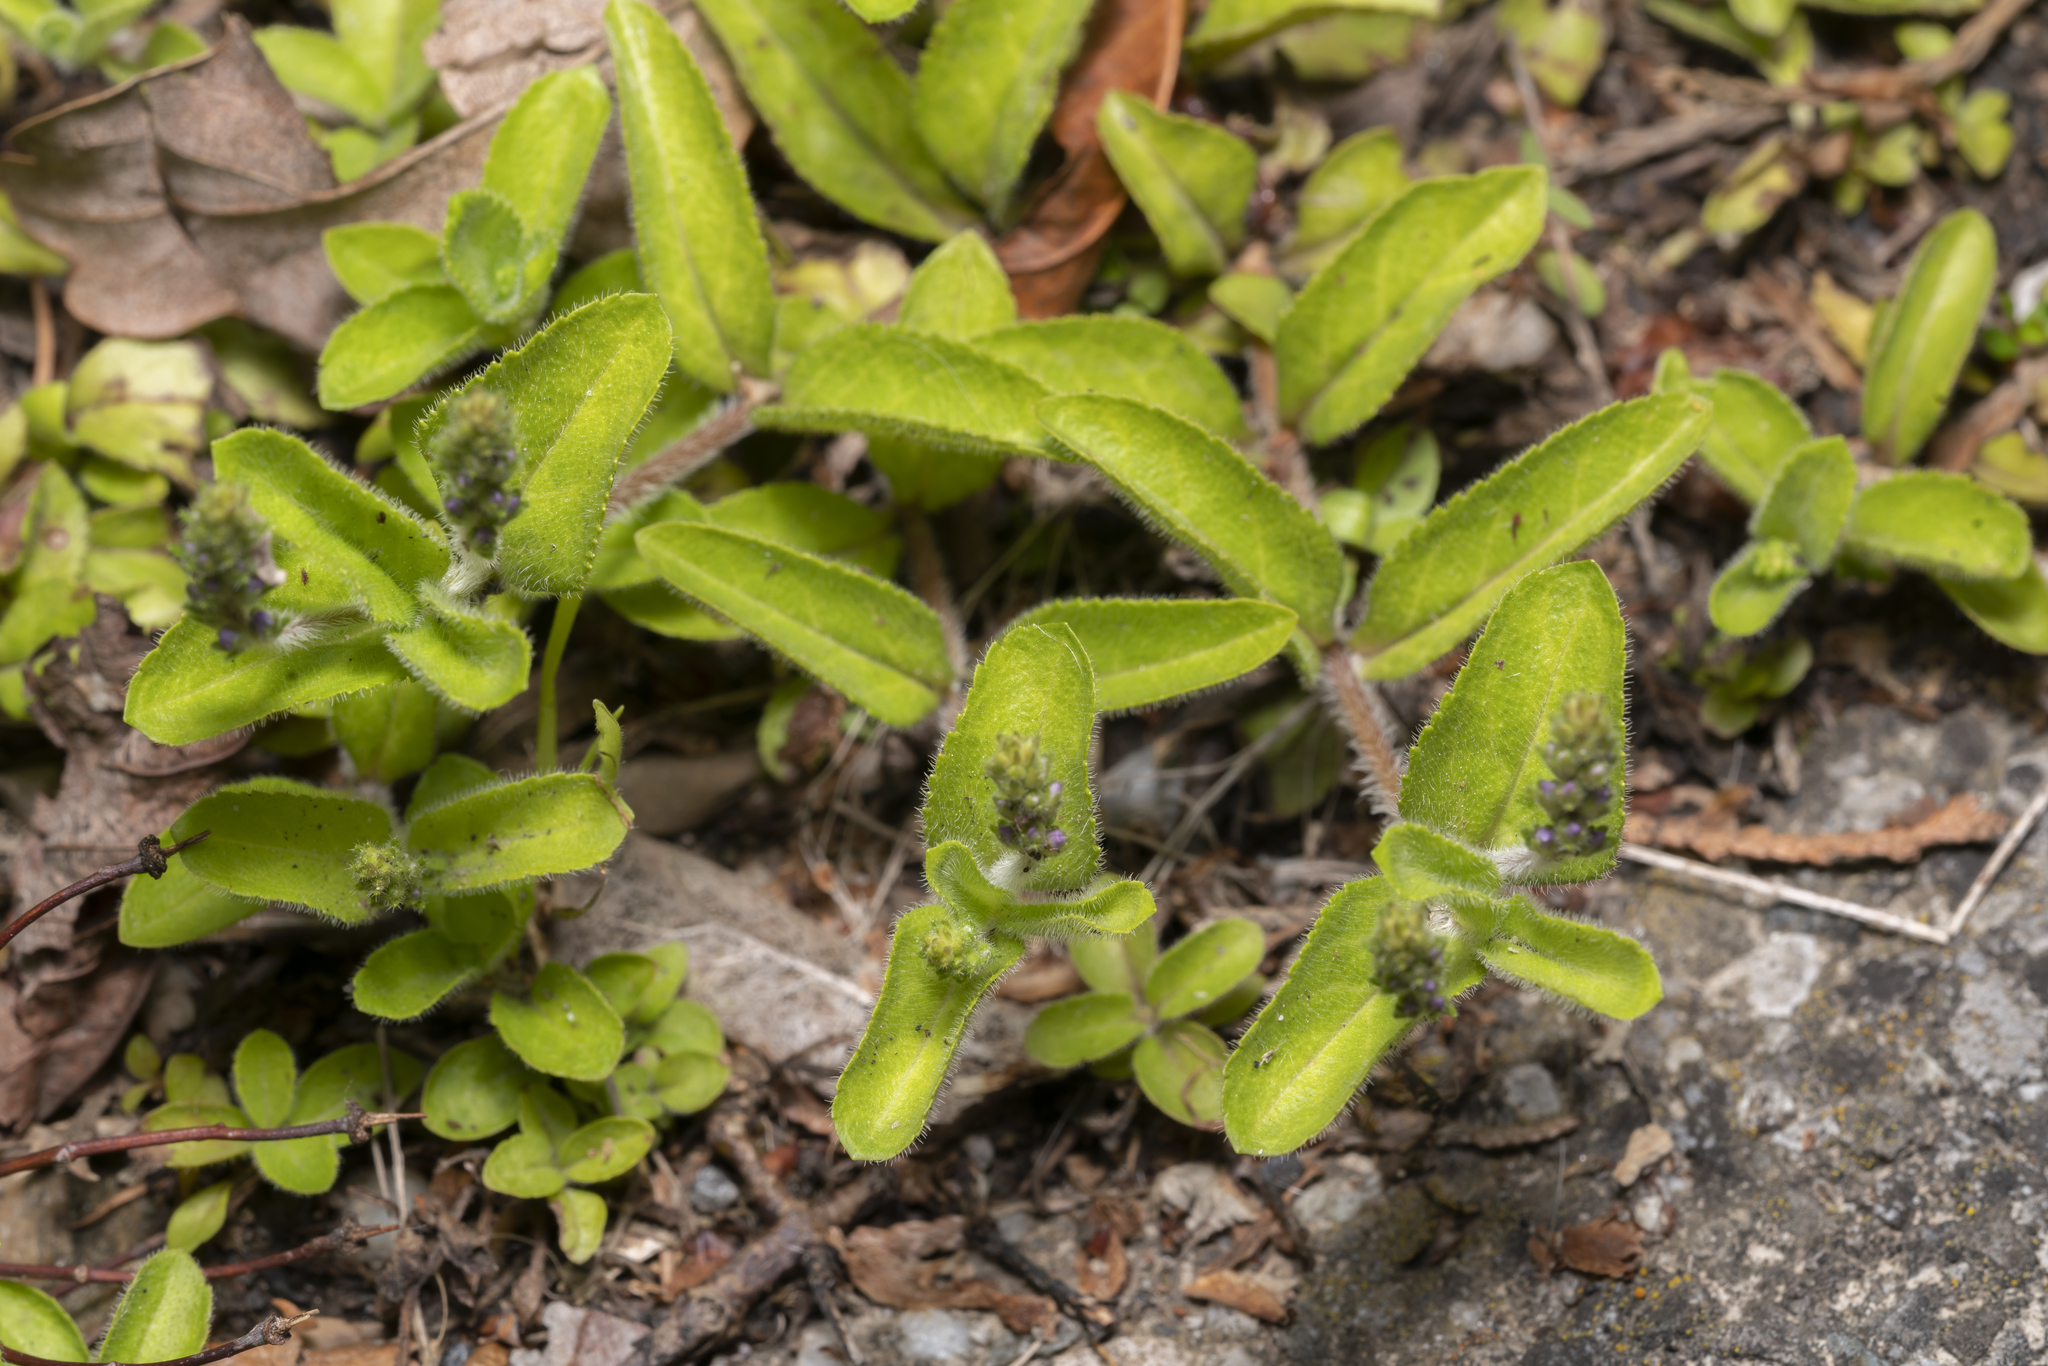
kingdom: Plantae
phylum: Tracheophyta
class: Magnoliopsida
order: Lamiales
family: Plantaginaceae
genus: Veronica
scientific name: Veronica officinalis
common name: Common speedwell
